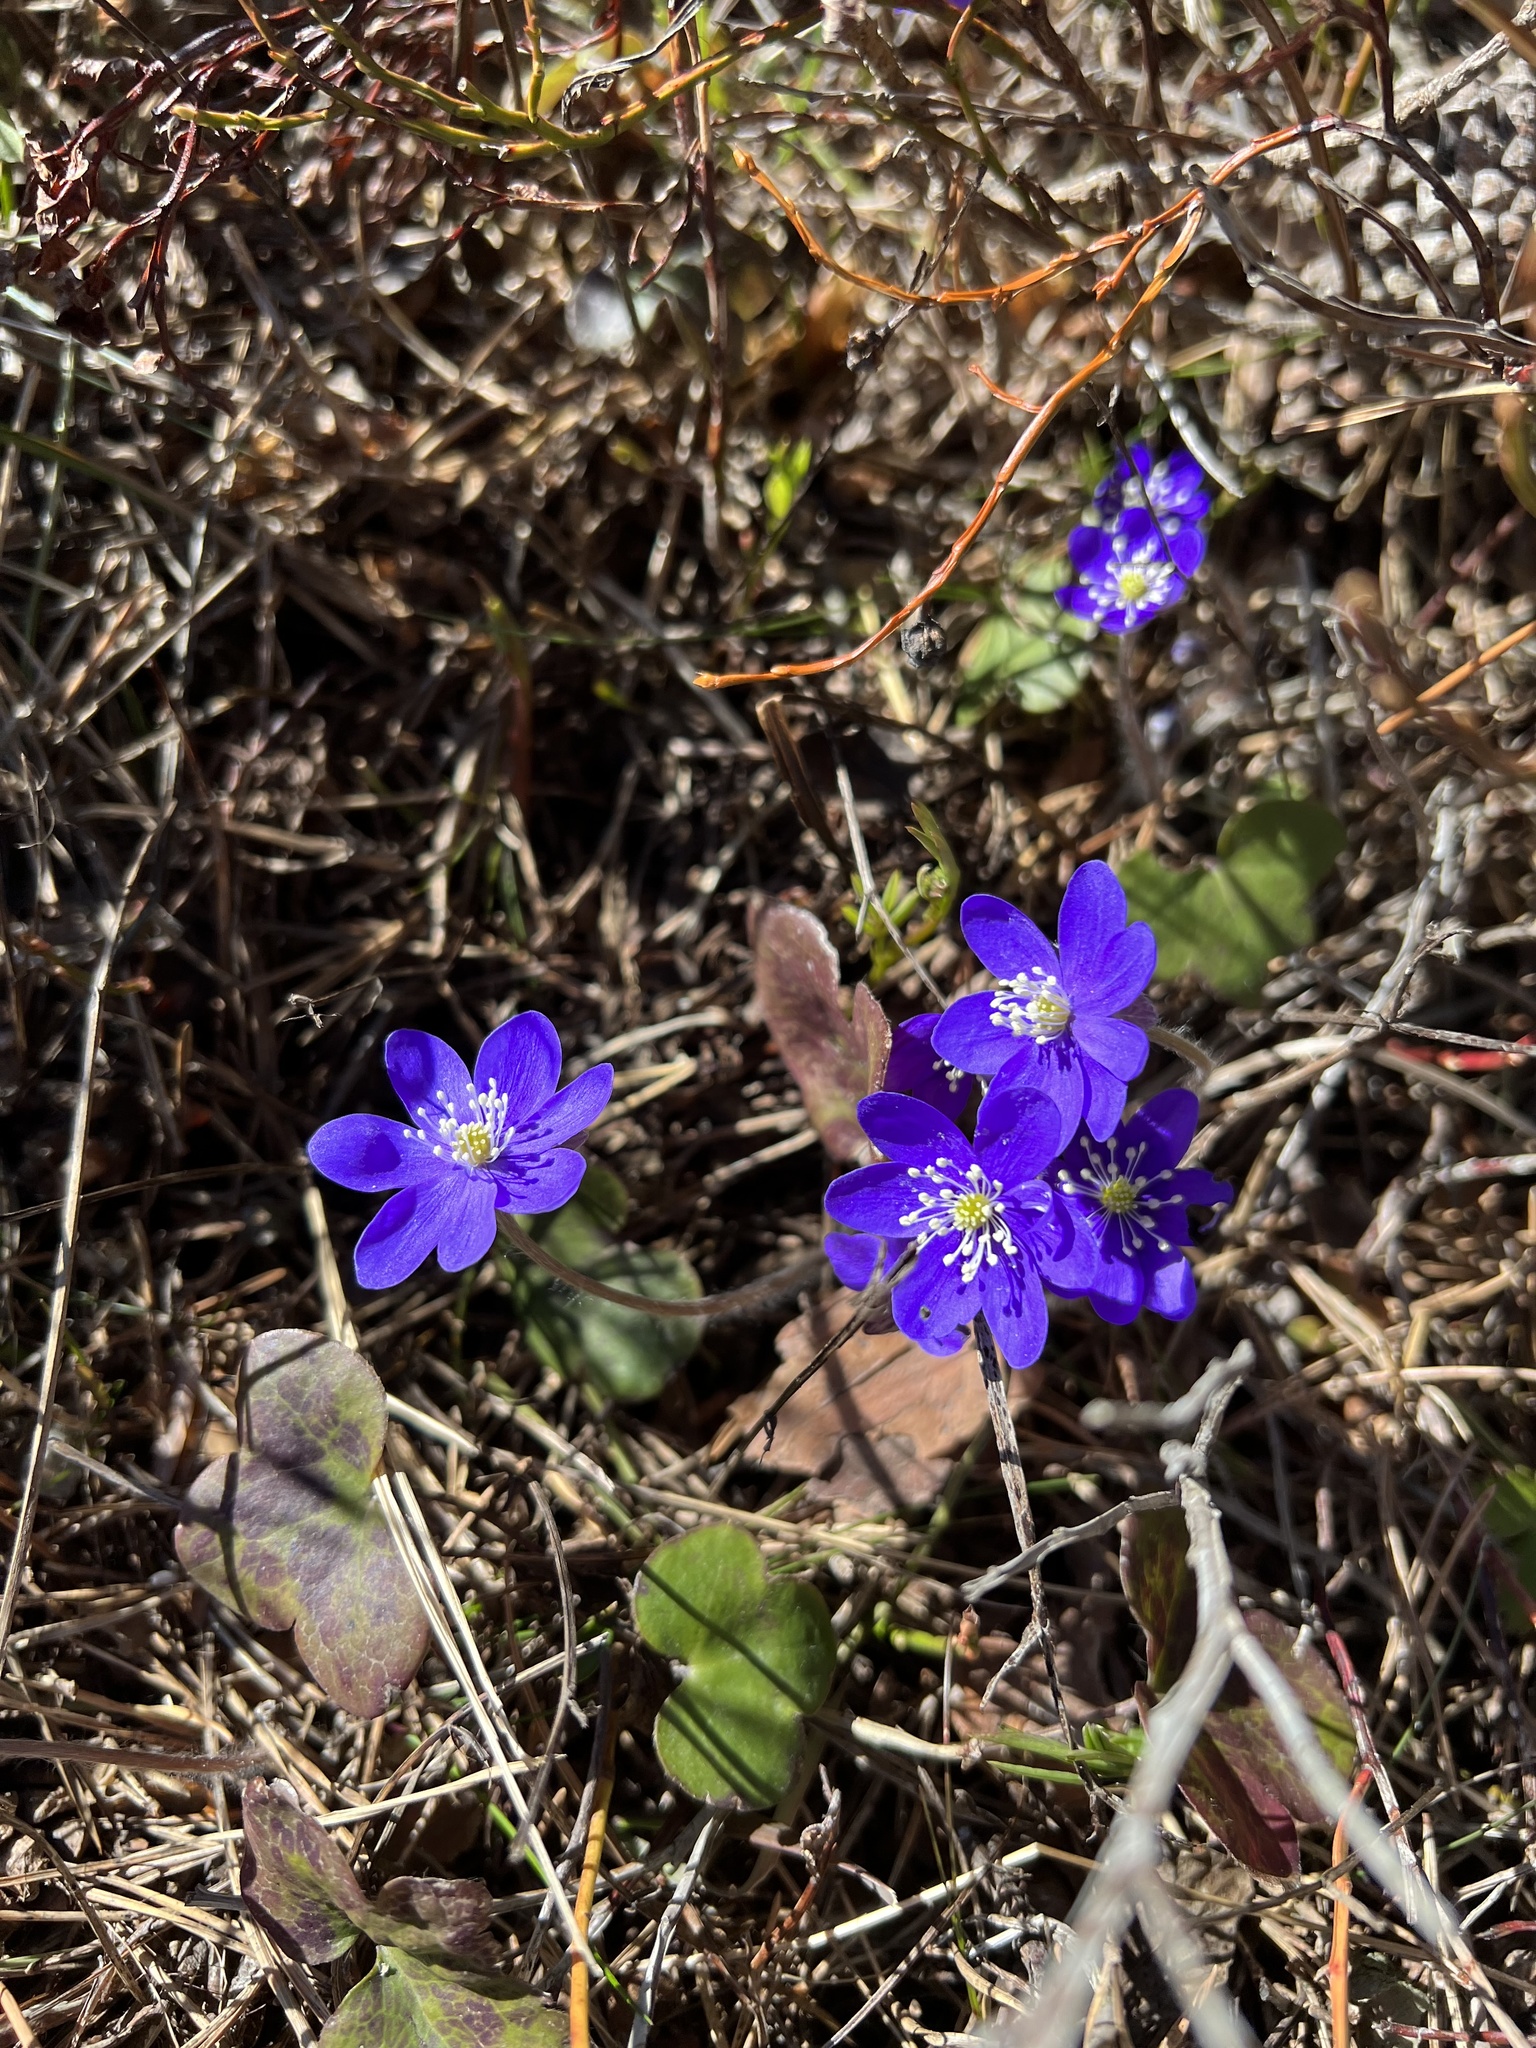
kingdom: Plantae
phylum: Tracheophyta
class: Magnoliopsida
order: Ranunculales
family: Ranunculaceae
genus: Hepatica
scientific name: Hepatica nobilis
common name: Liverleaf
